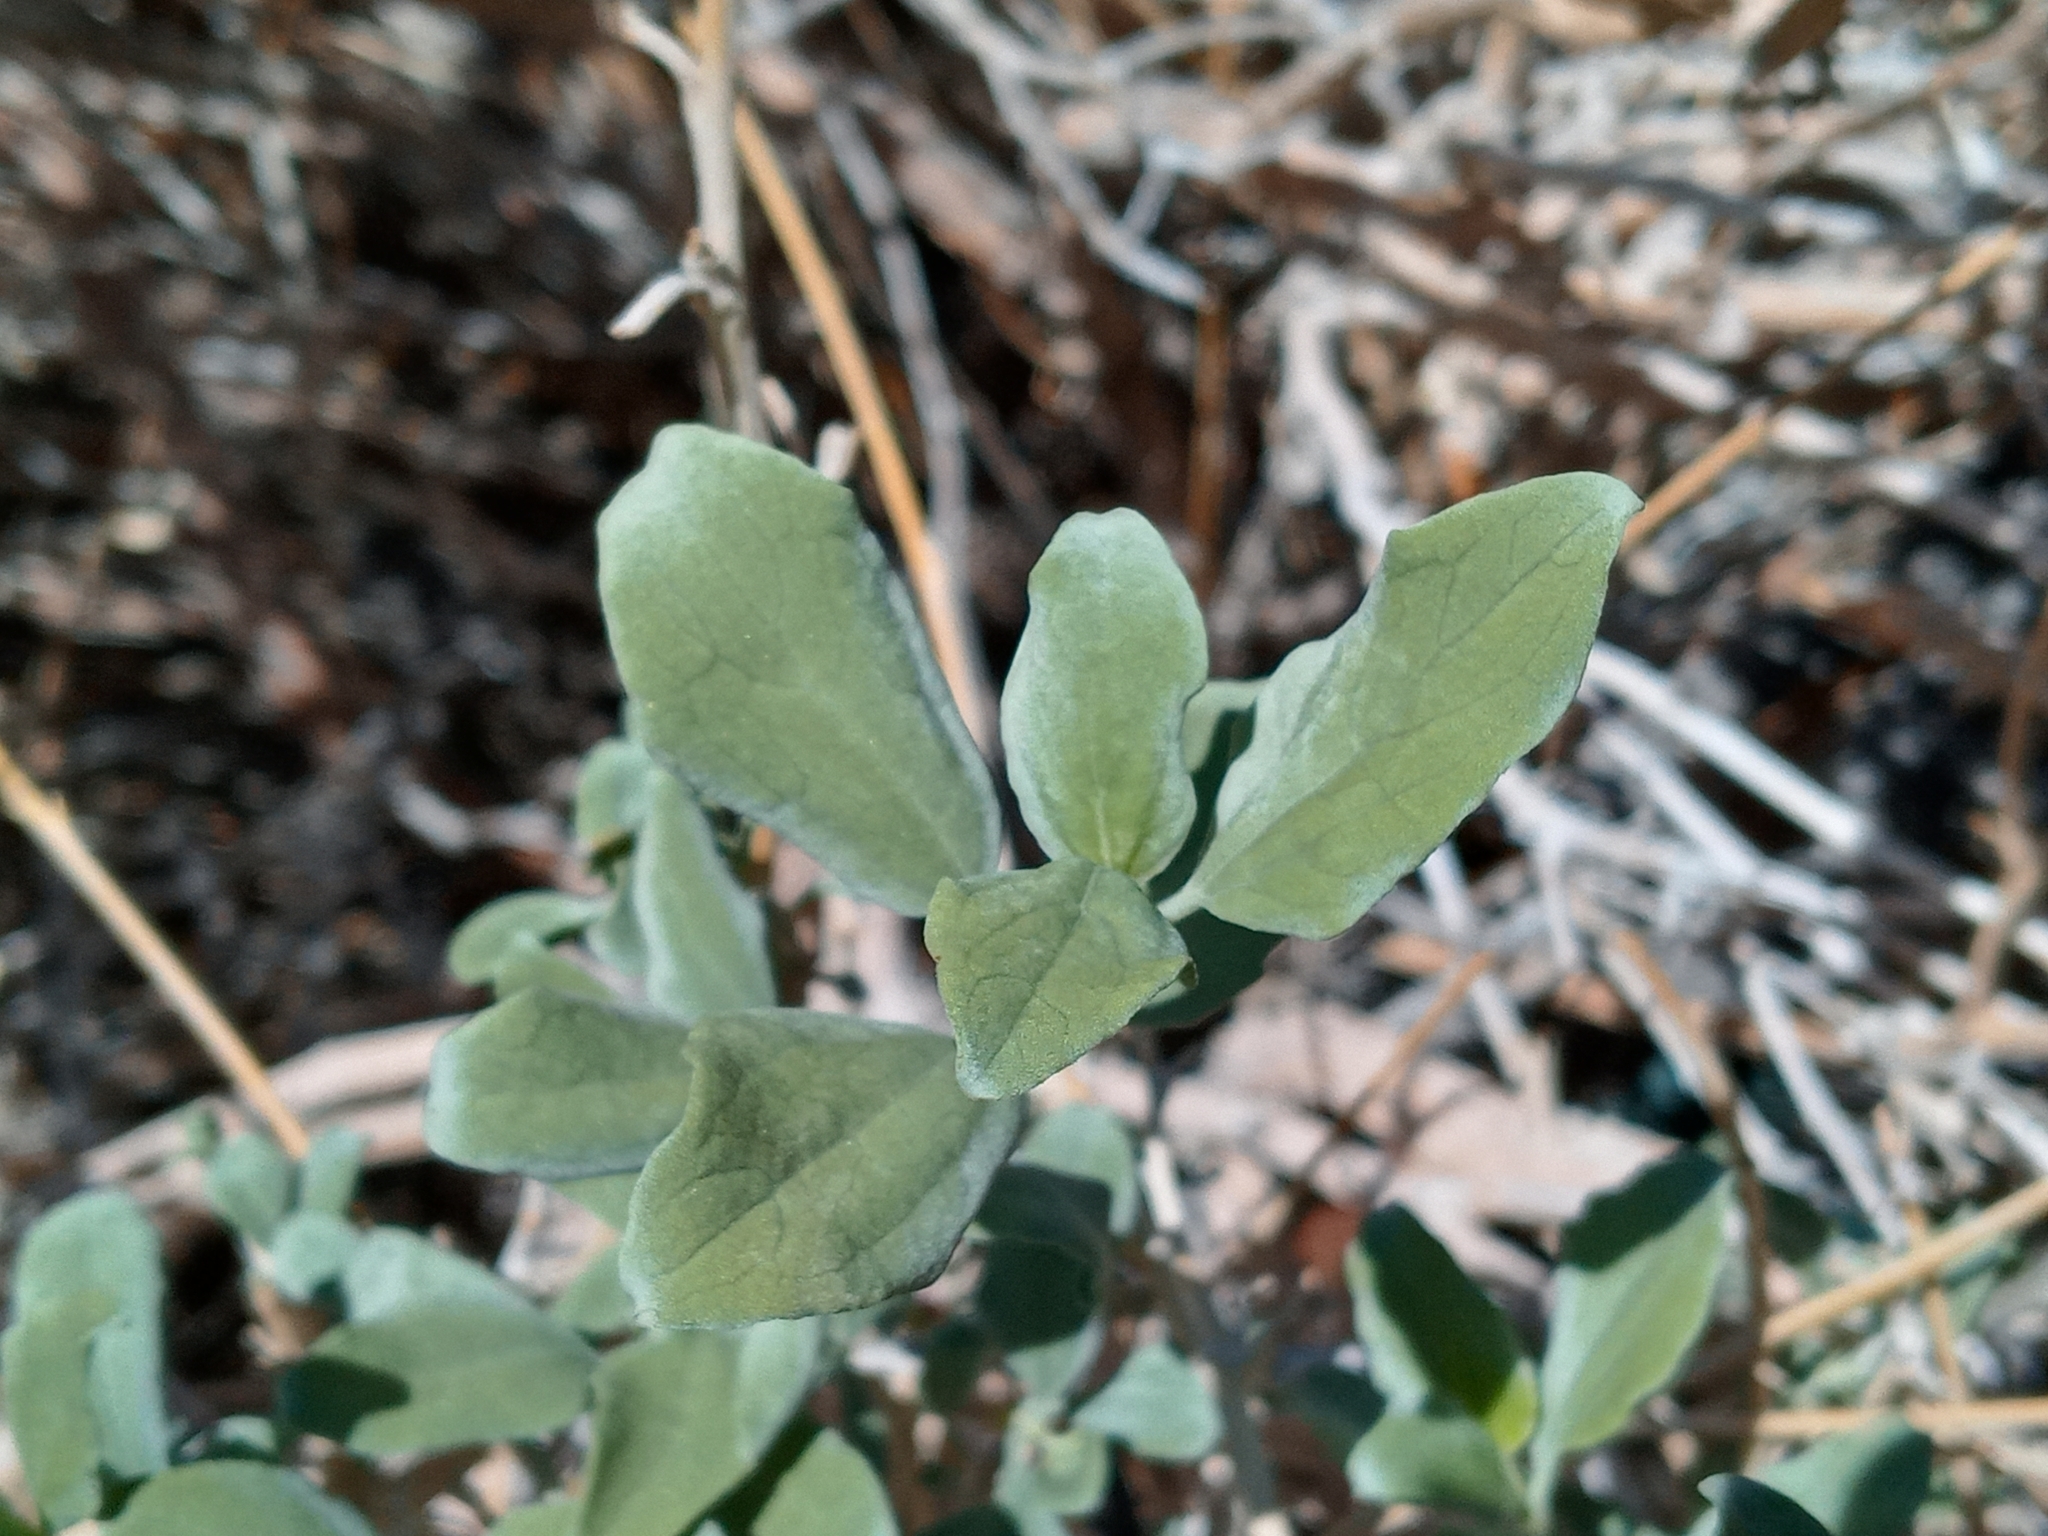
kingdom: Plantae
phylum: Tracheophyta
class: Magnoliopsida
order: Asterales
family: Asteraceae
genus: Encelia
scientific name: Encelia actoni
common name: Acton encelia
